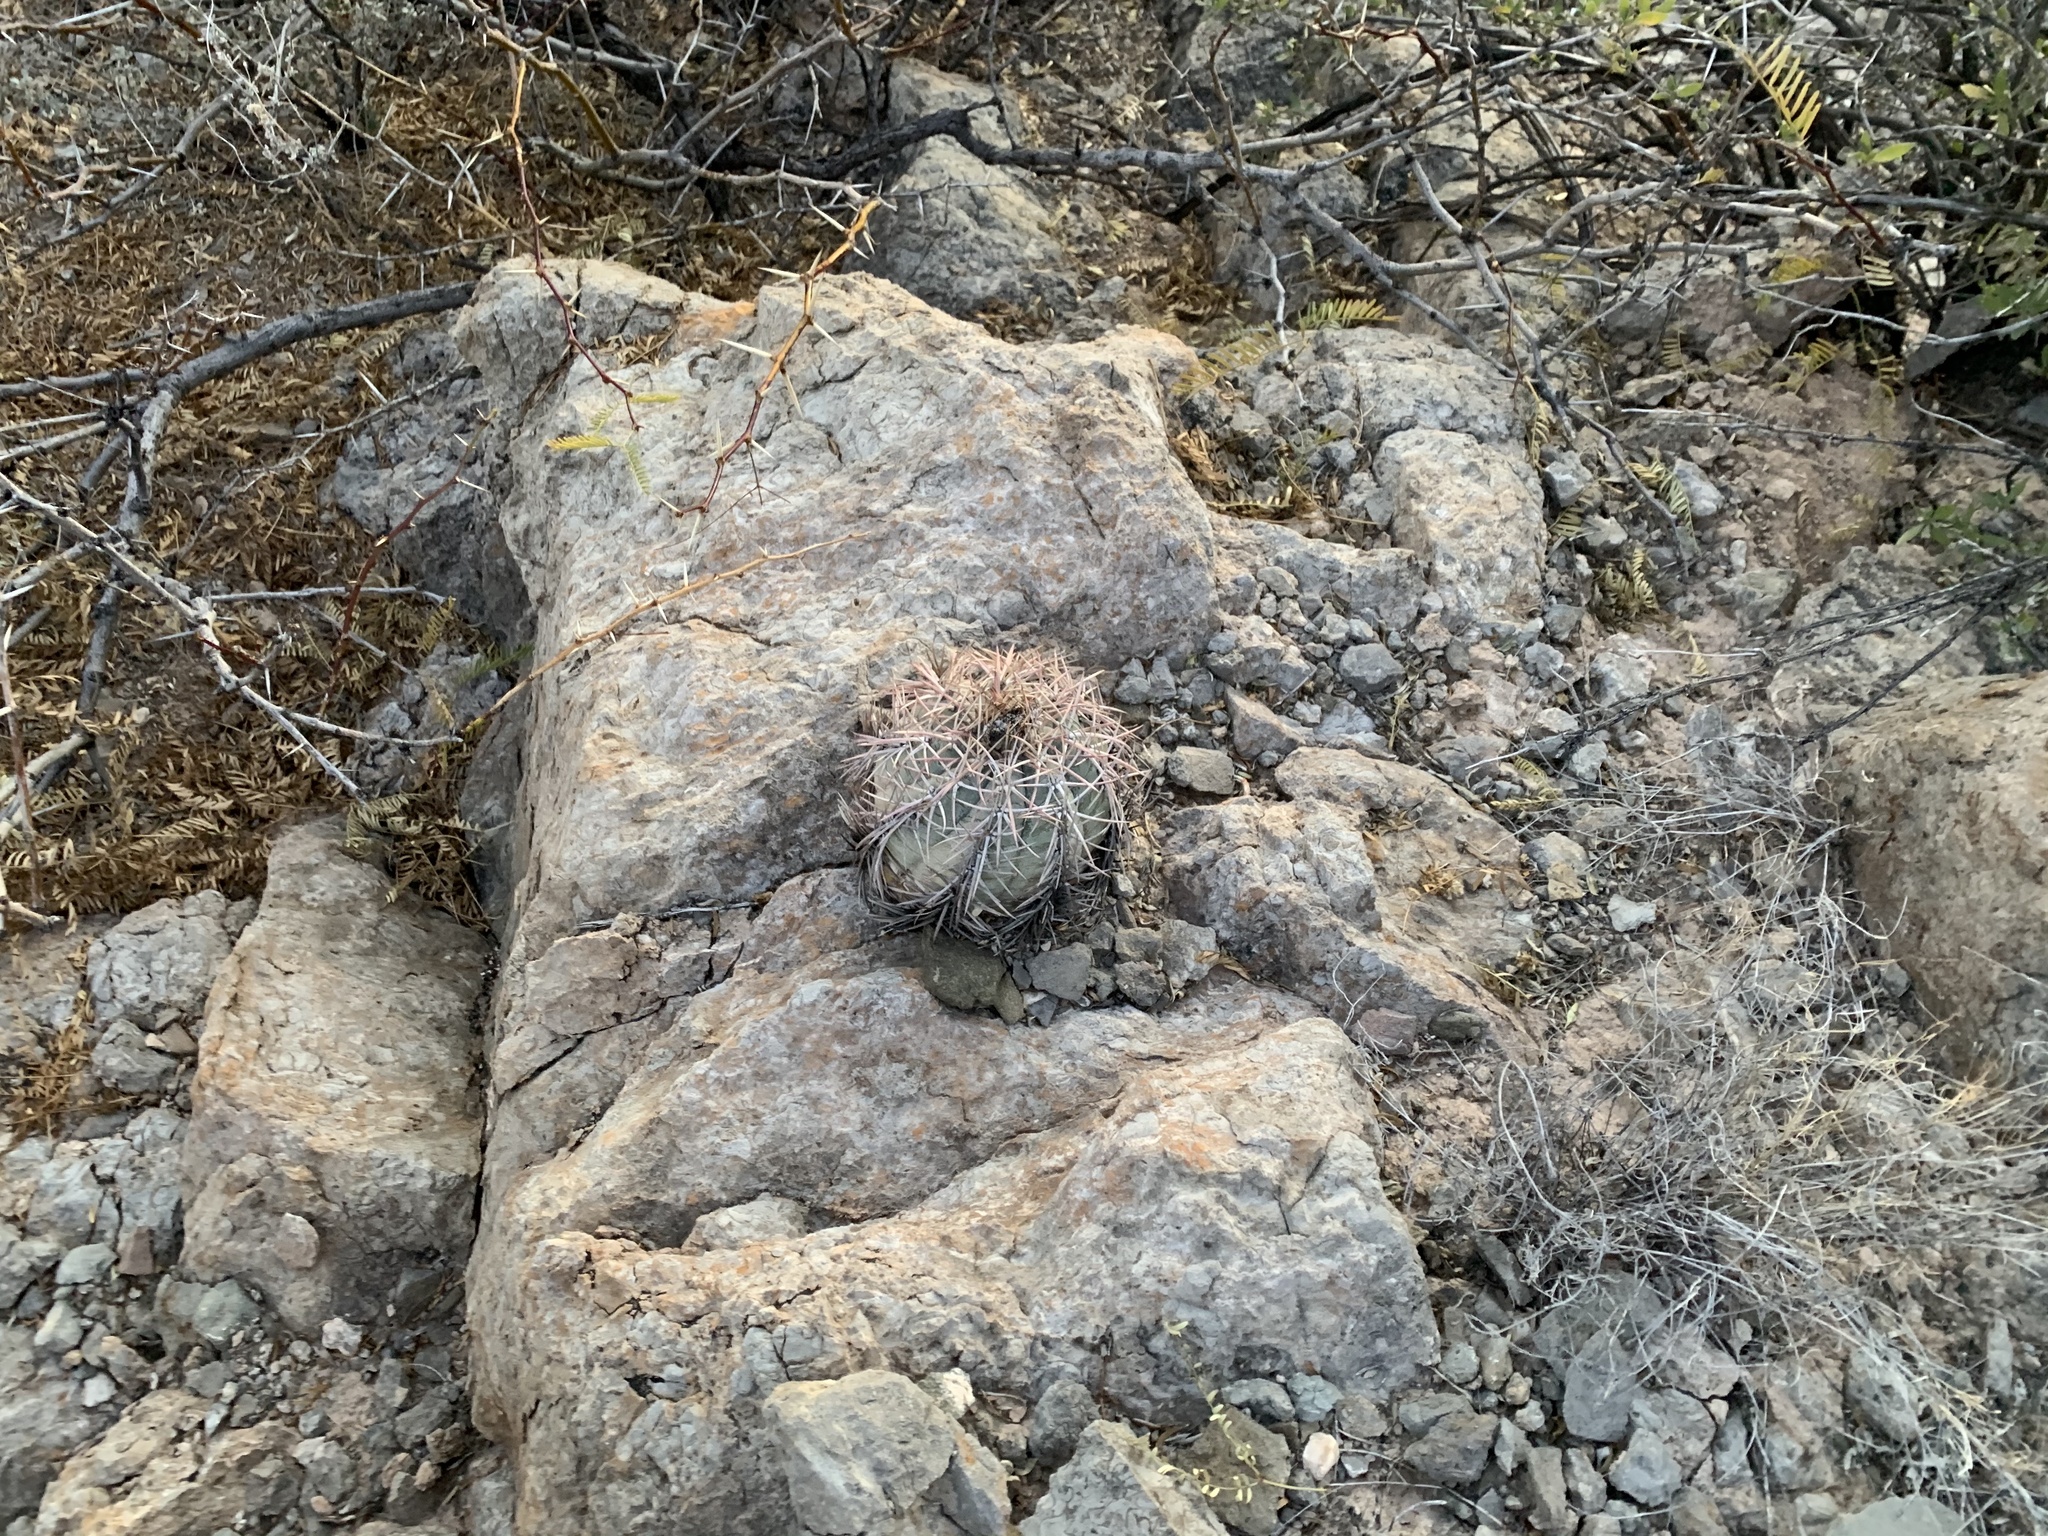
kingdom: Plantae
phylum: Tracheophyta
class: Magnoliopsida
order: Caryophyllales
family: Cactaceae
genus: Echinocactus
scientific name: Echinocactus horizonthalonius
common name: Devilshead
